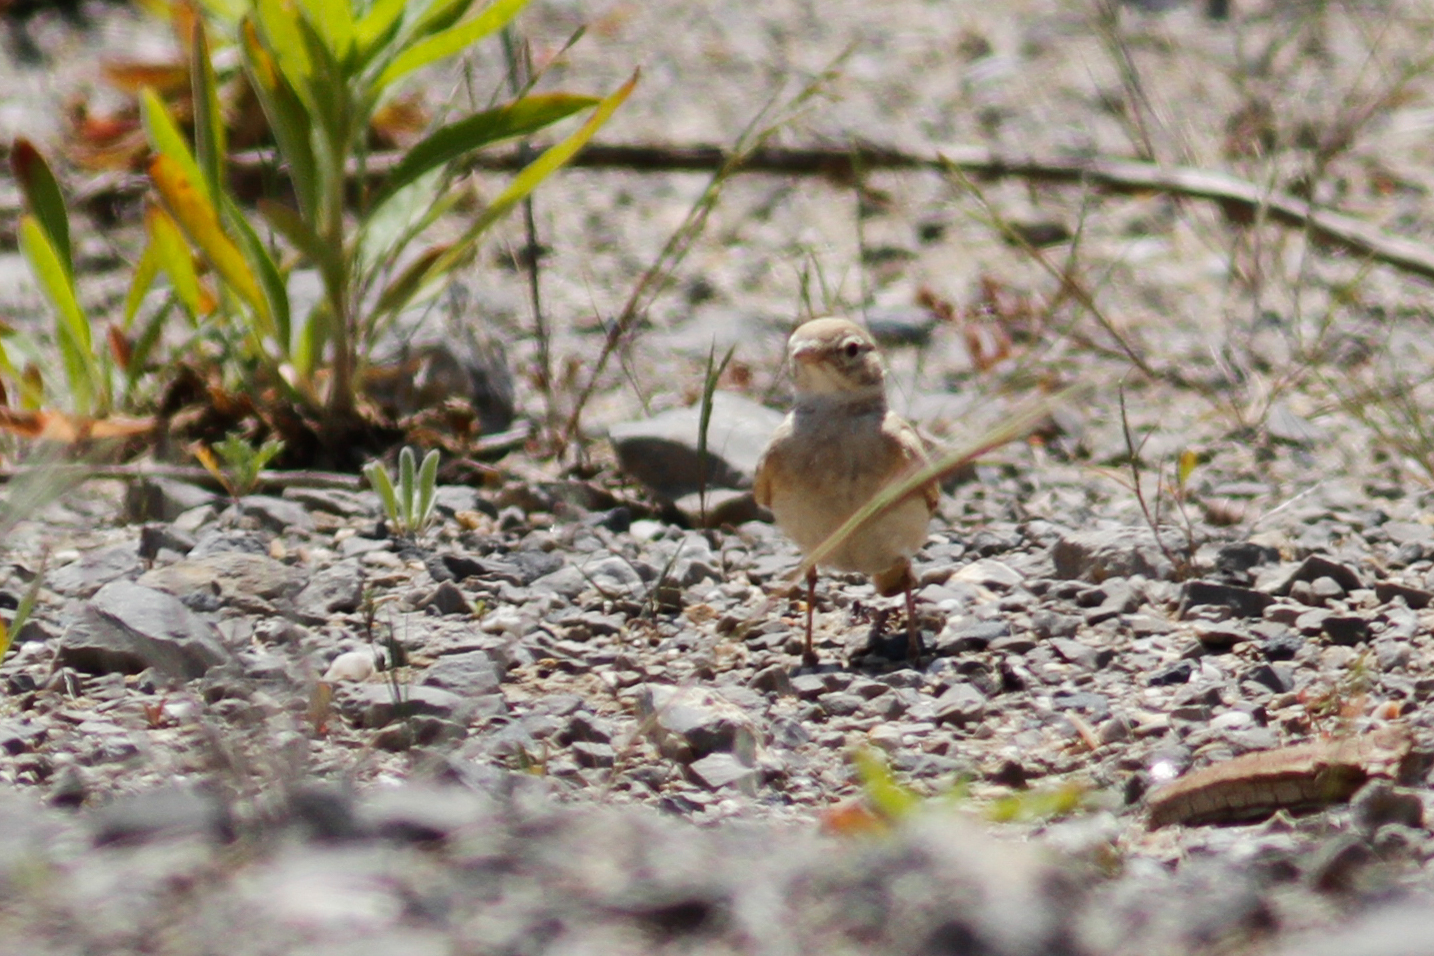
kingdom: Animalia
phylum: Chordata
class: Aves
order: Passeriformes
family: Alaudidae
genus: Ammomanes
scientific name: Ammomanes cinctura
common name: Bar-tailed lark
